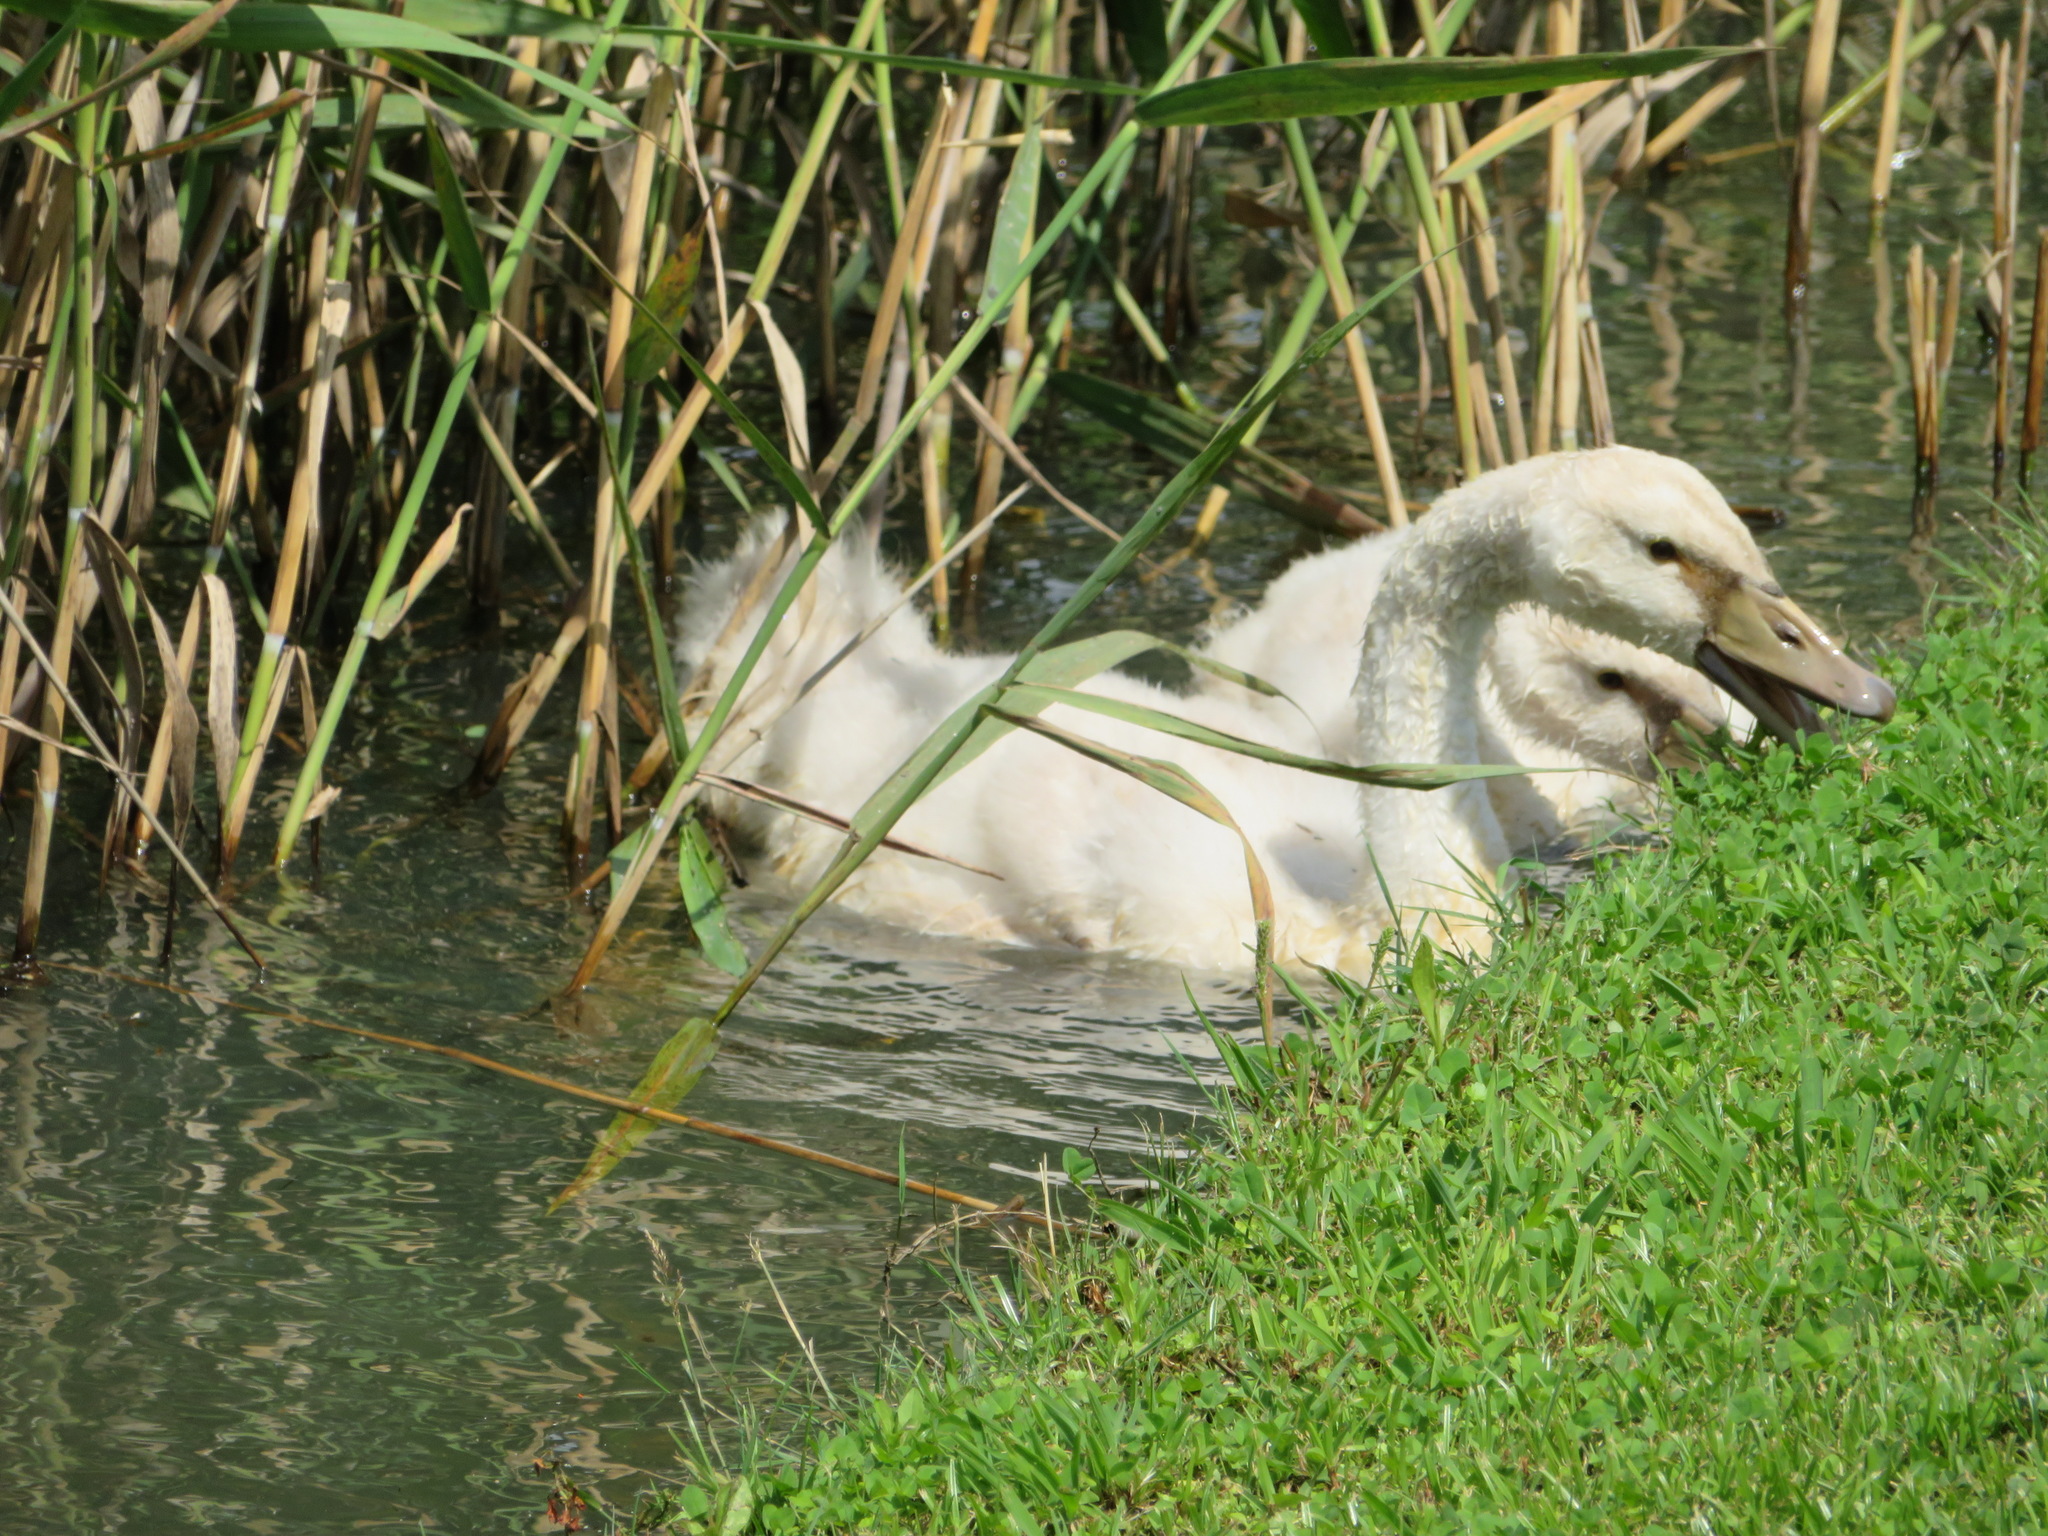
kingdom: Animalia
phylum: Chordata
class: Aves
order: Anseriformes
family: Anatidae
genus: Cygnus
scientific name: Cygnus olor
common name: Mute swan
